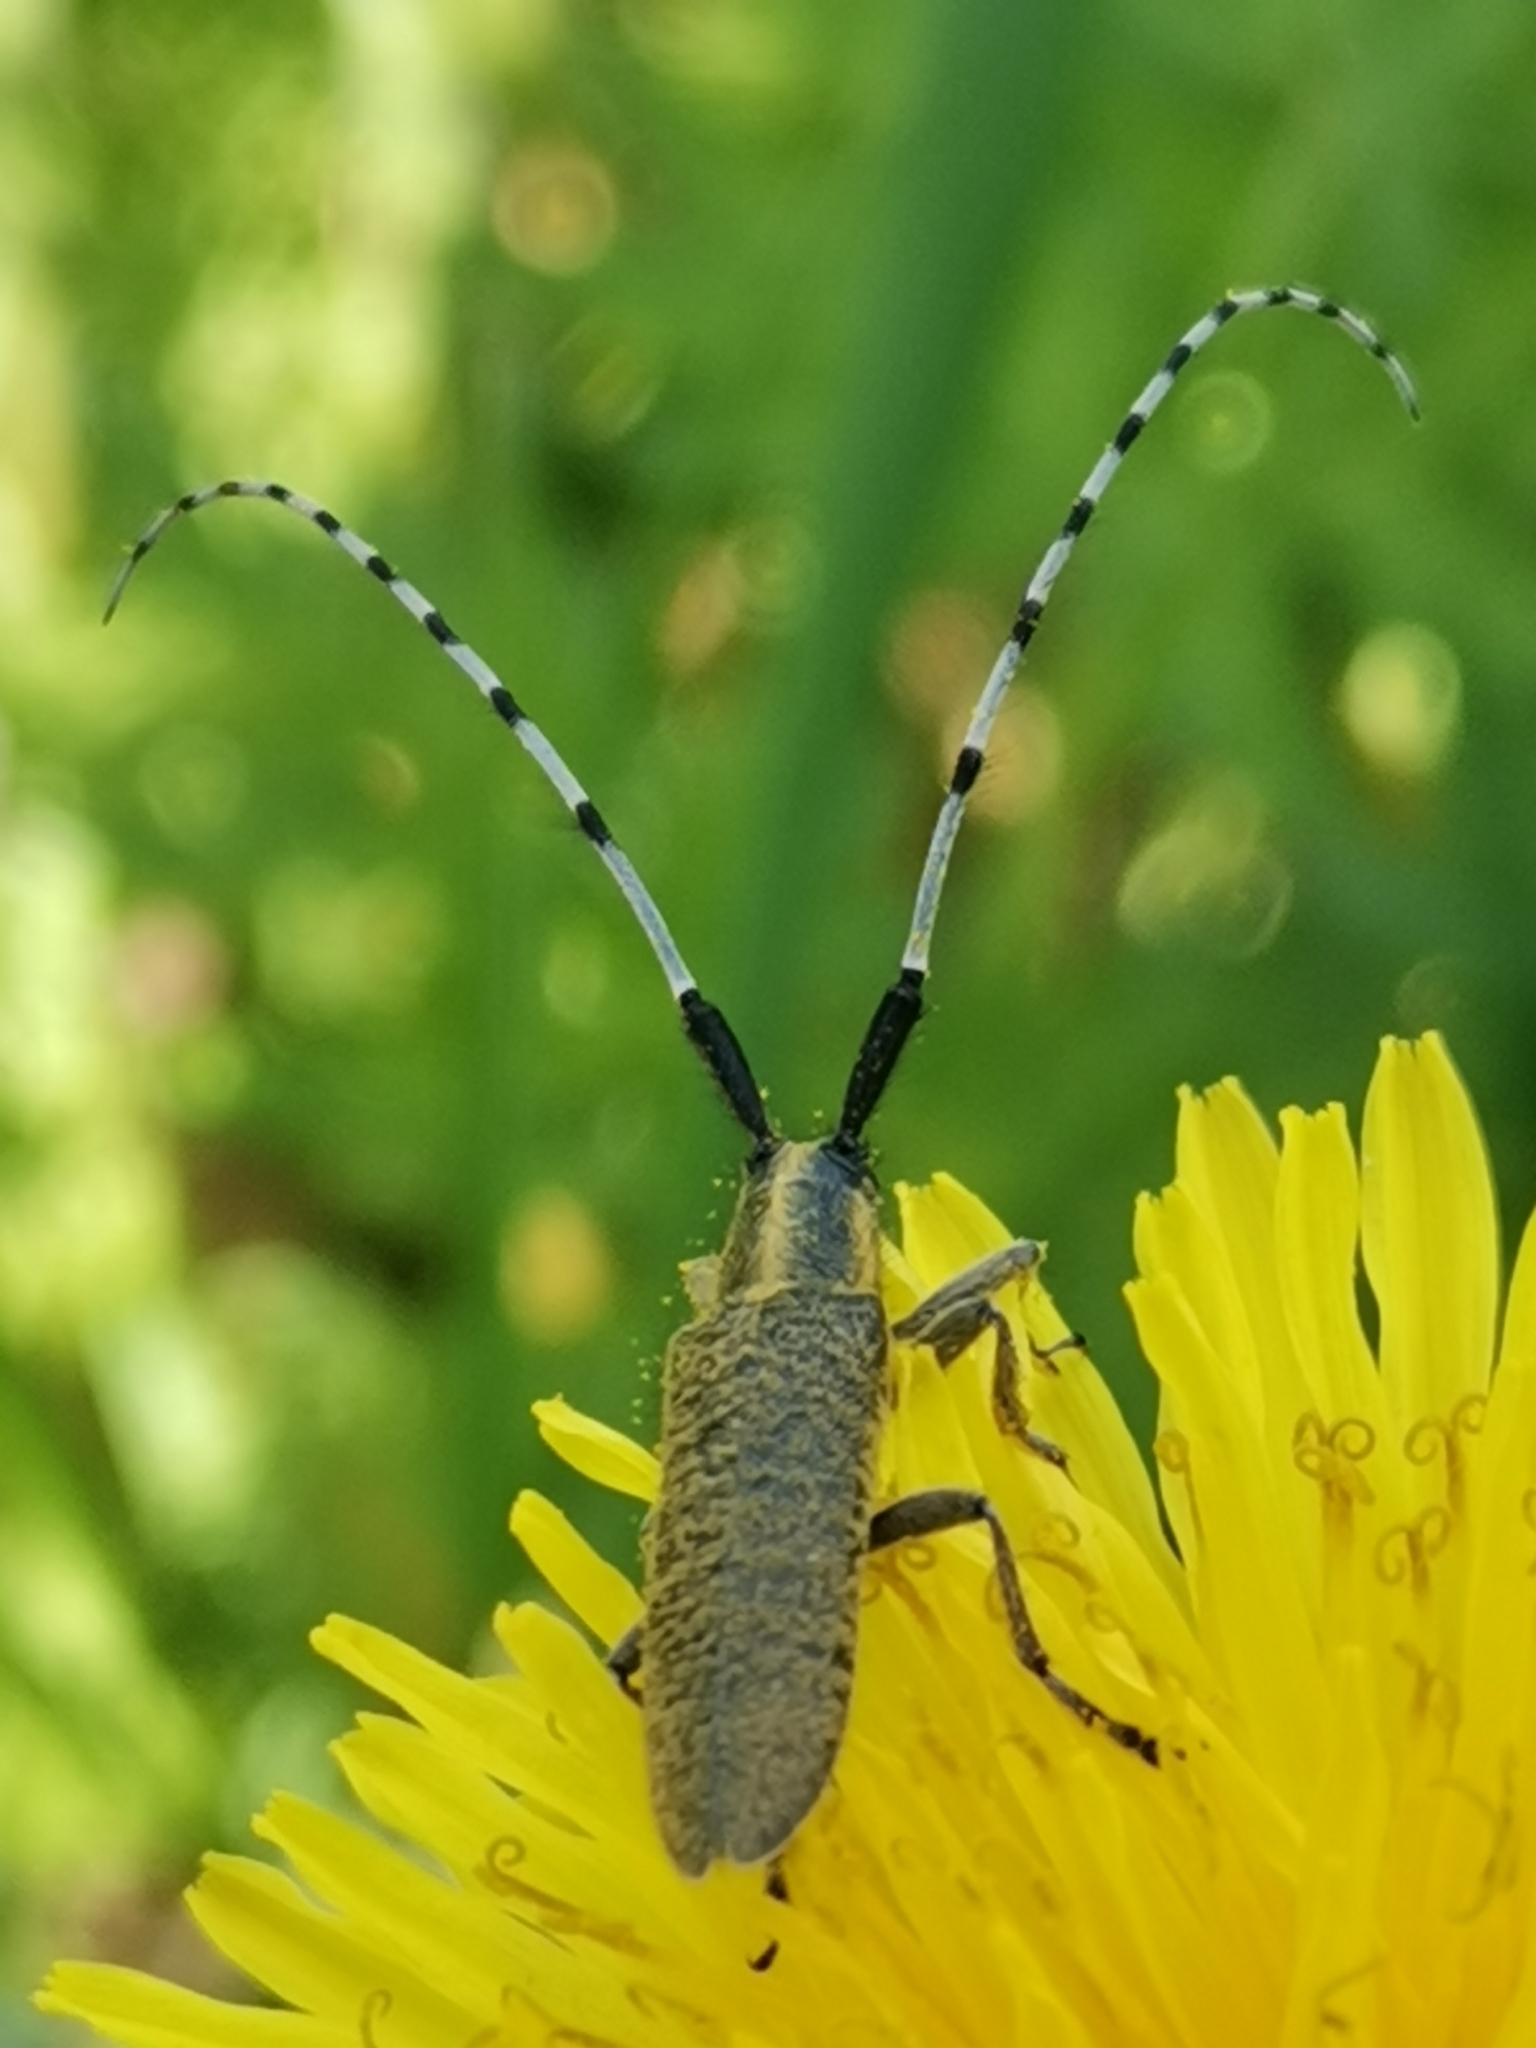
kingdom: Animalia
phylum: Arthropoda
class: Insecta
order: Coleoptera
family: Cerambycidae
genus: Agapanthia
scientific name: Agapanthia villosoviridescens
